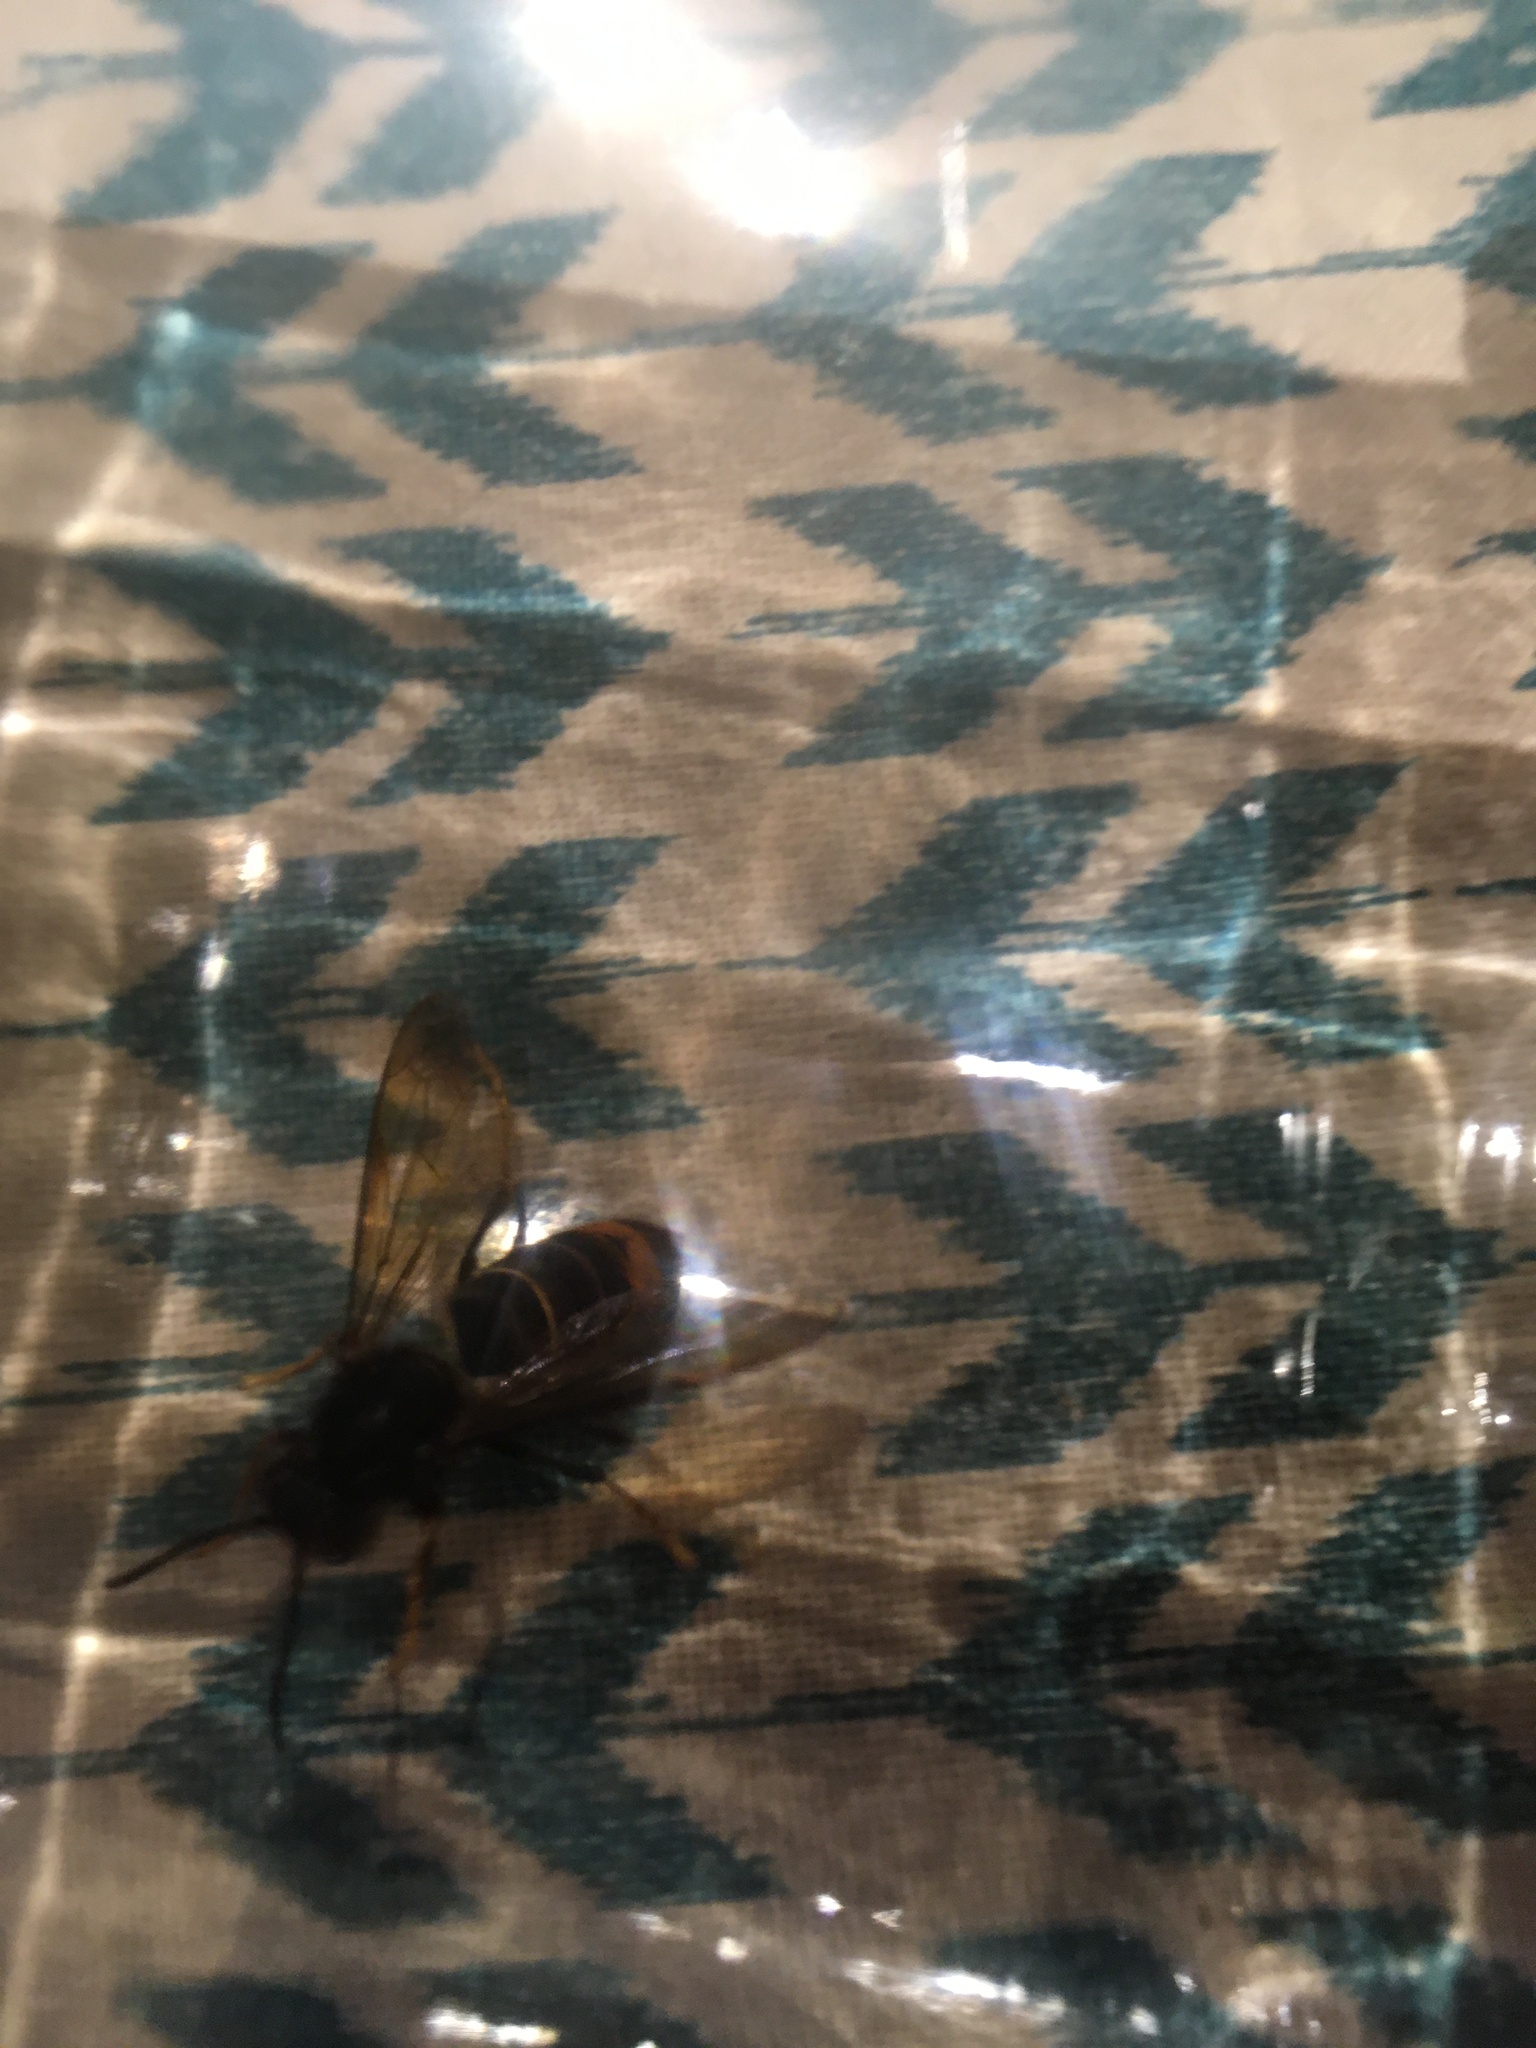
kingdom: Animalia
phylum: Arthropoda
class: Insecta
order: Hymenoptera
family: Vespidae
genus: Vespa
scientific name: Vespa velutina
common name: Asian hornet
